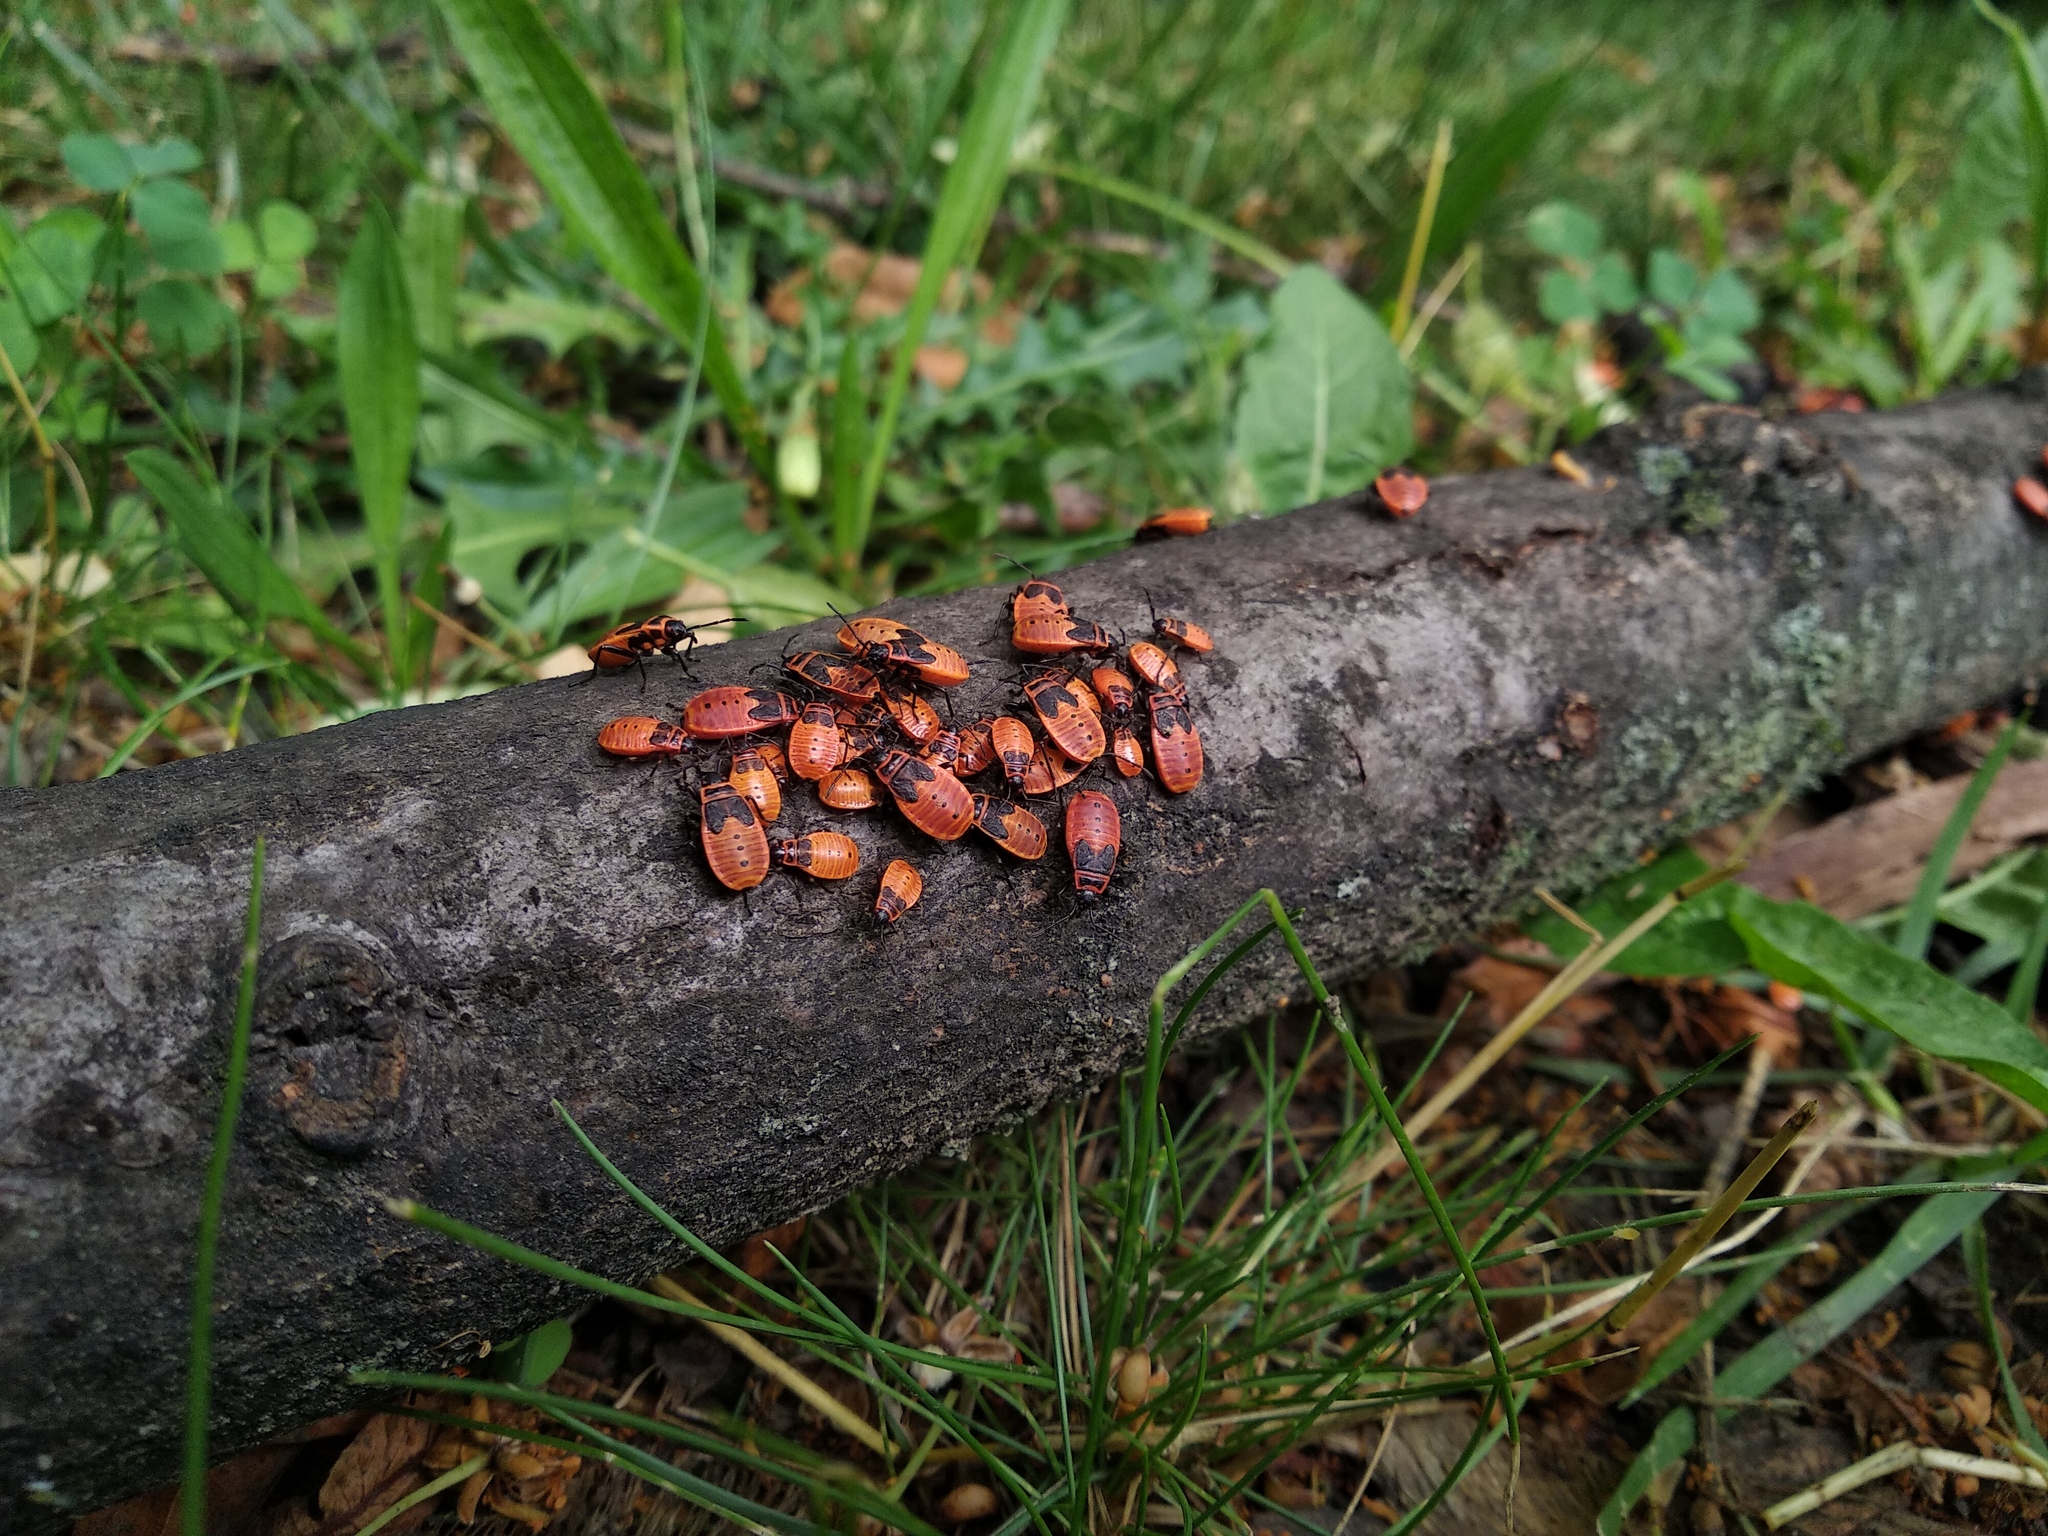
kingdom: Animalia
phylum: Arthropoda
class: Insecta
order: Hemiptera
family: Pyrrhocoridae
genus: Pyrrhocoris
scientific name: Pyrrhocoris apterus
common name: Firebug
